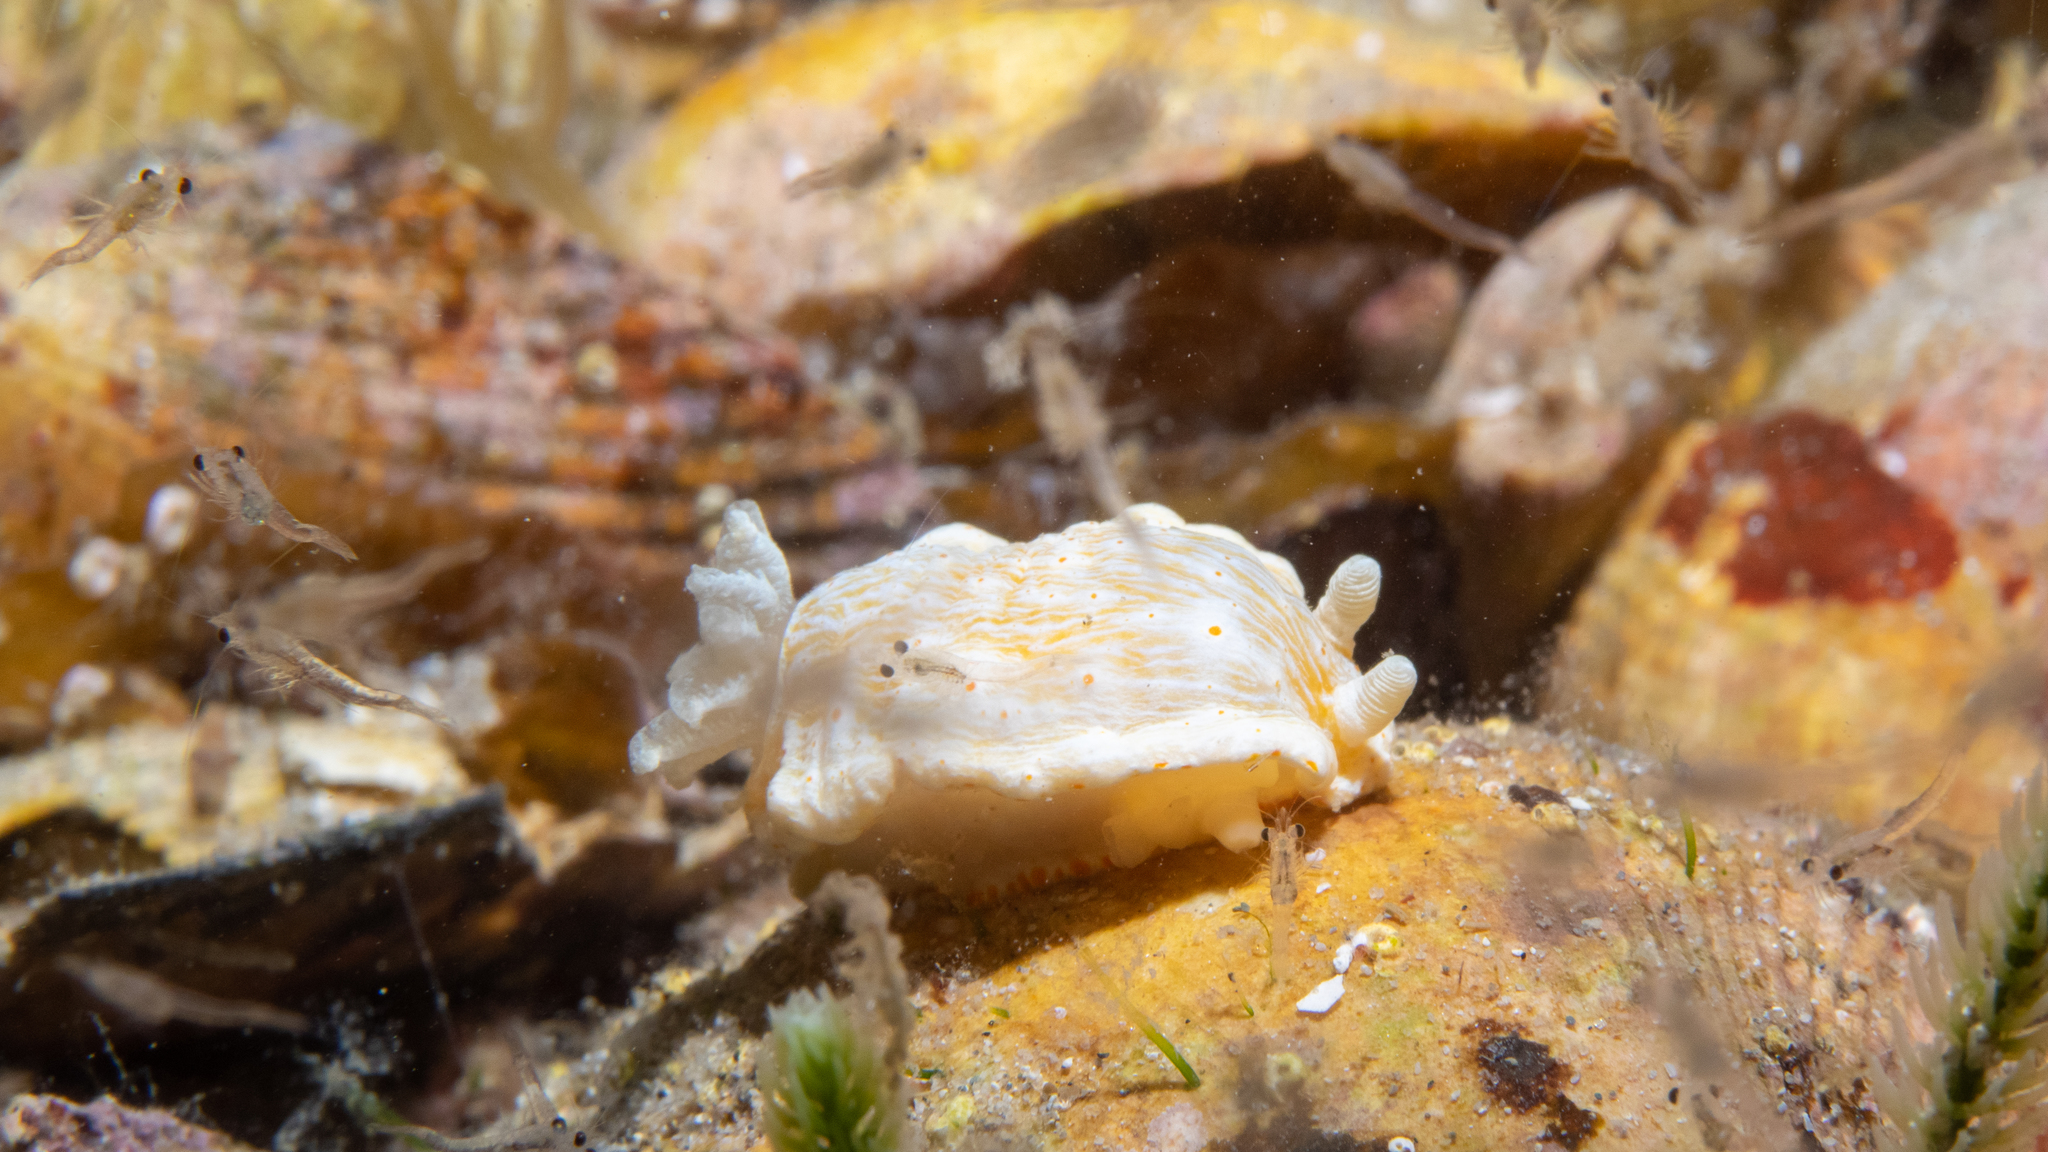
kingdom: Animalia
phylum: Mollusca
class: Gastropoda
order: Nudibranchia
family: Chromodorididae
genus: Goniobranchus
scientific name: Goniobranchus epicurius
